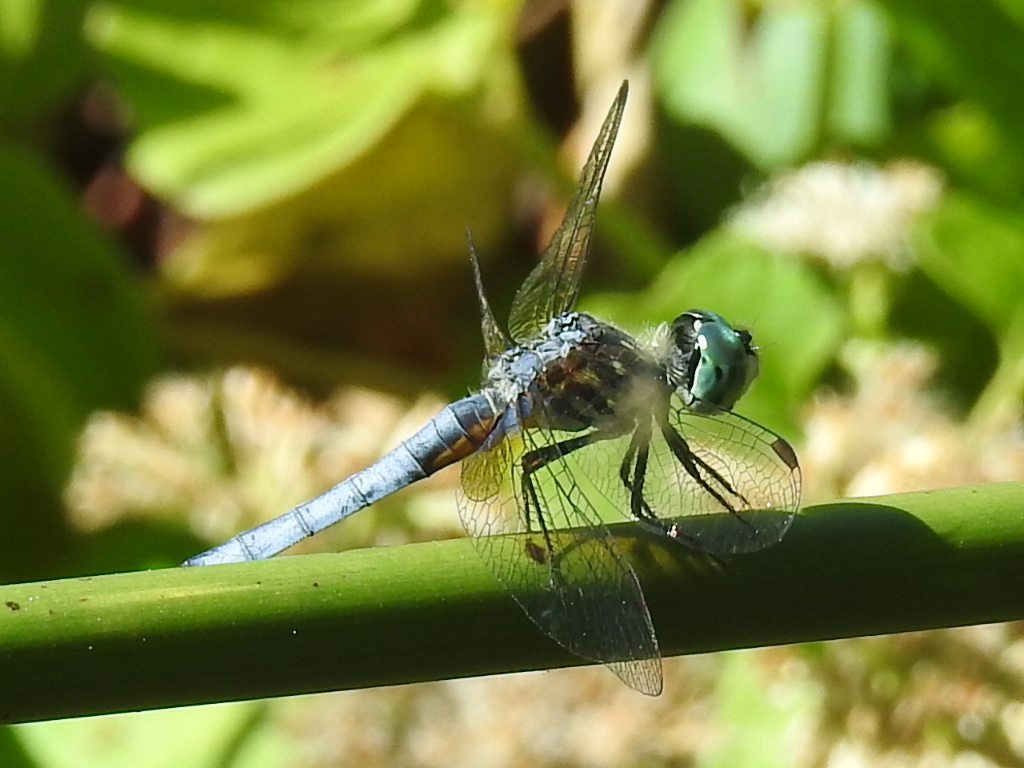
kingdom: Animalia
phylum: Arthropoda
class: Insecta
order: Odonata
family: Libellulidae
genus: Pachydiplax
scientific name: Pachydiplax longipennis
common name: Blue dasher
